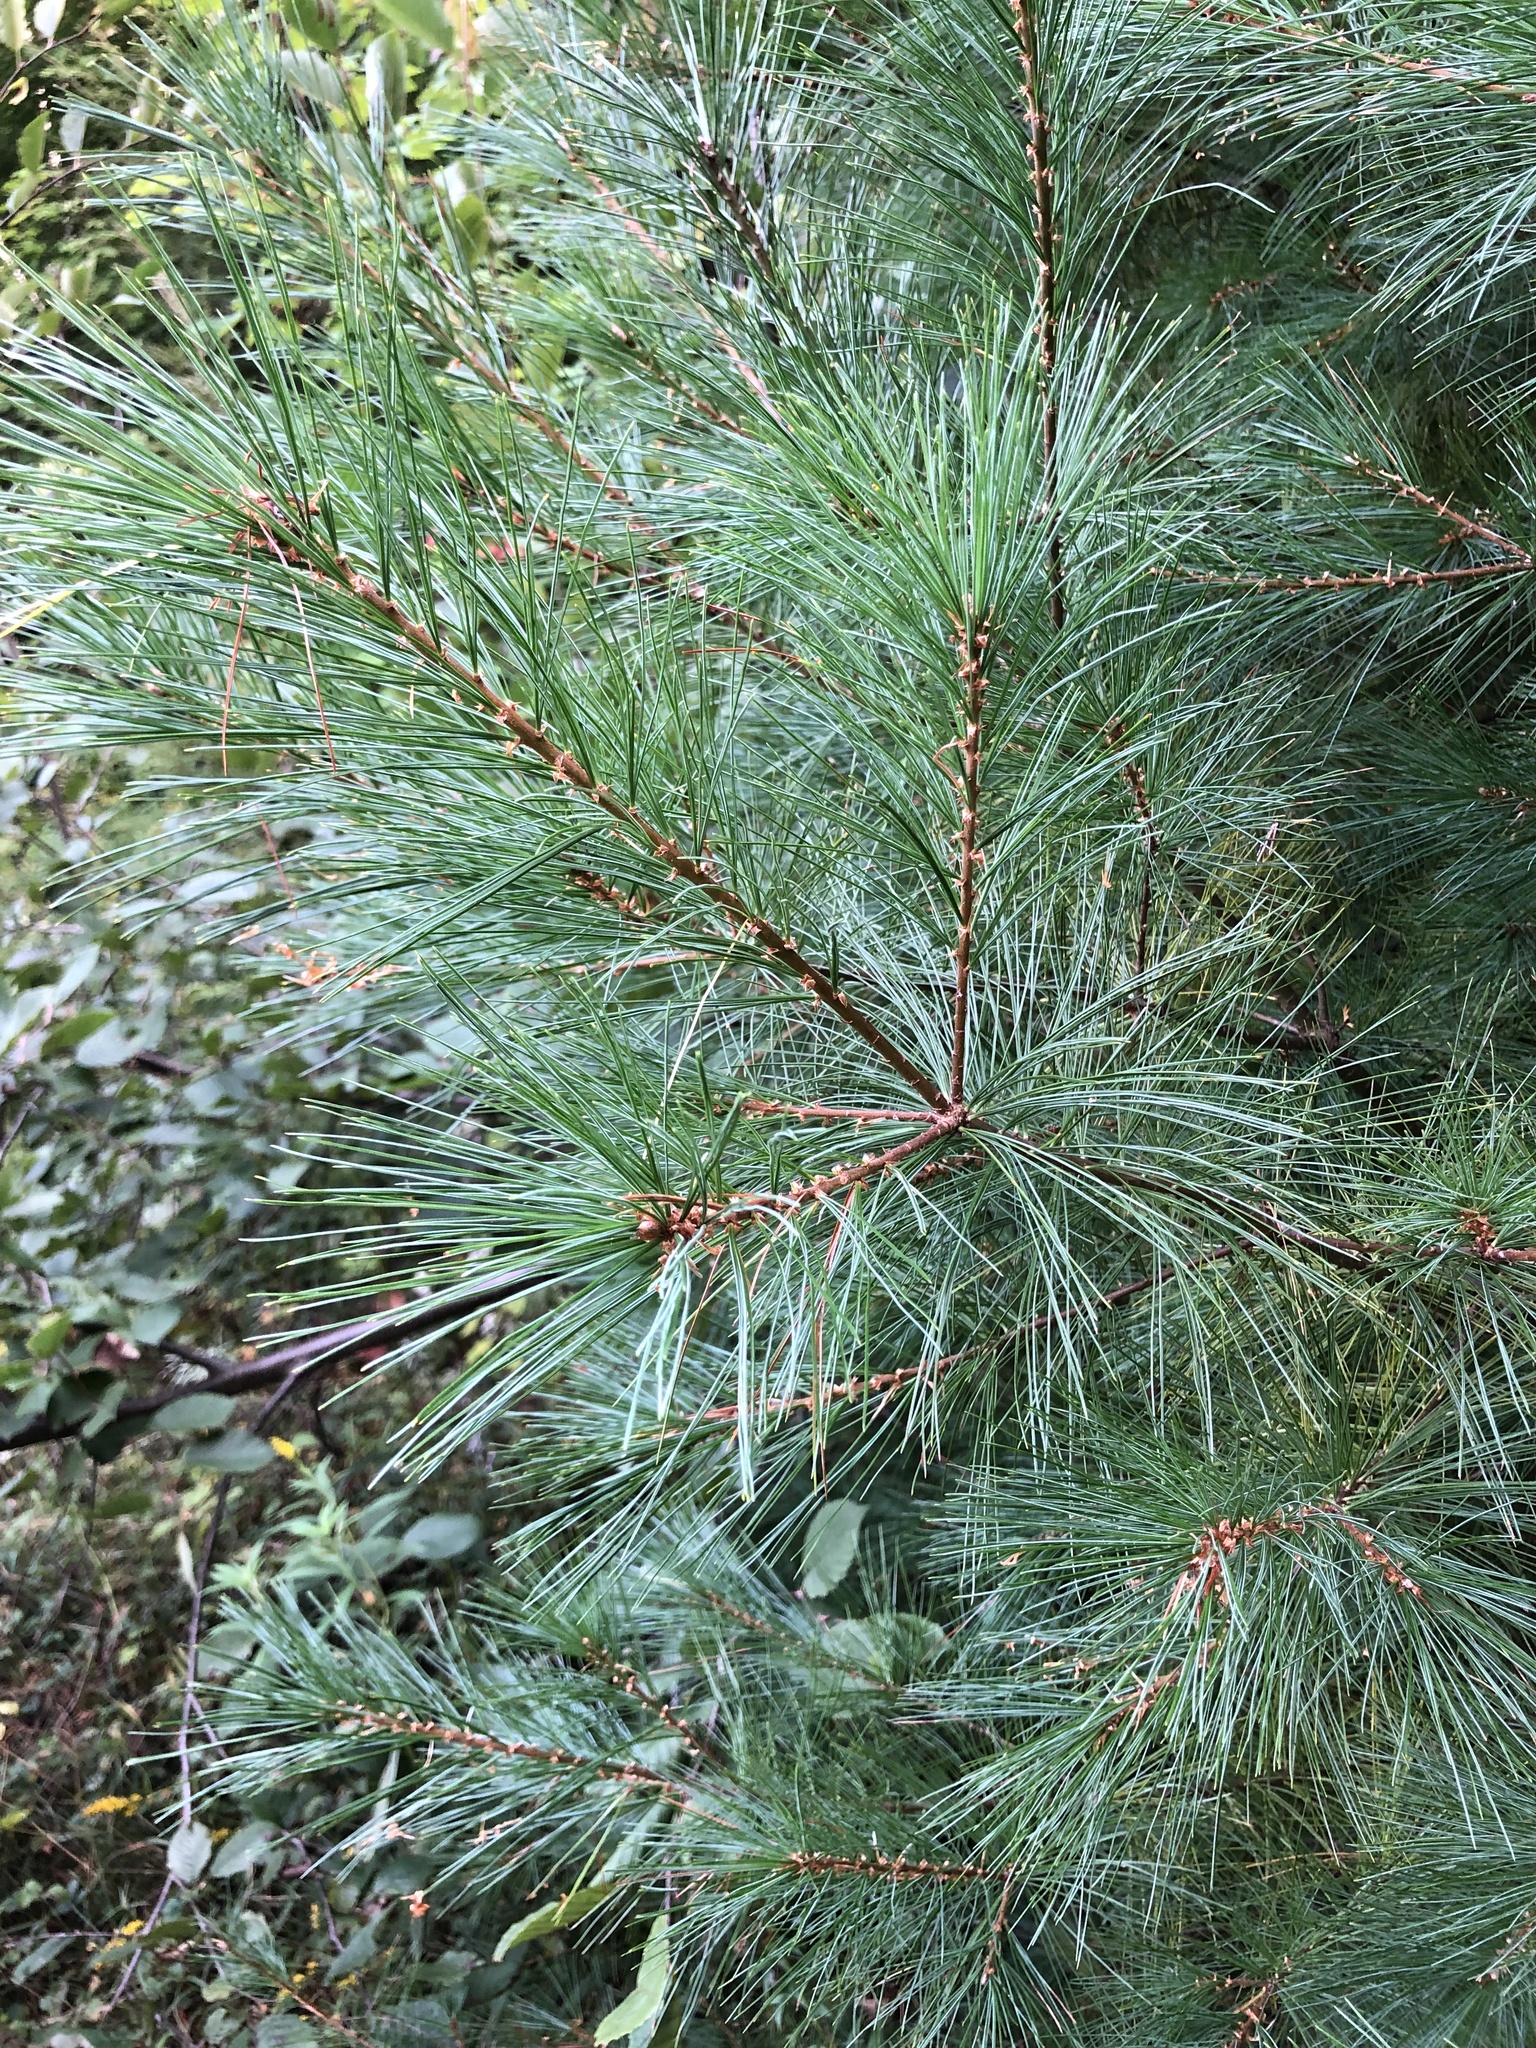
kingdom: Plantae
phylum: Tracheophyta
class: Pinopsida
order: Pinales
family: Pinaceae
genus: Pinus
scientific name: Pinus strobus
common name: Weymouth pine
